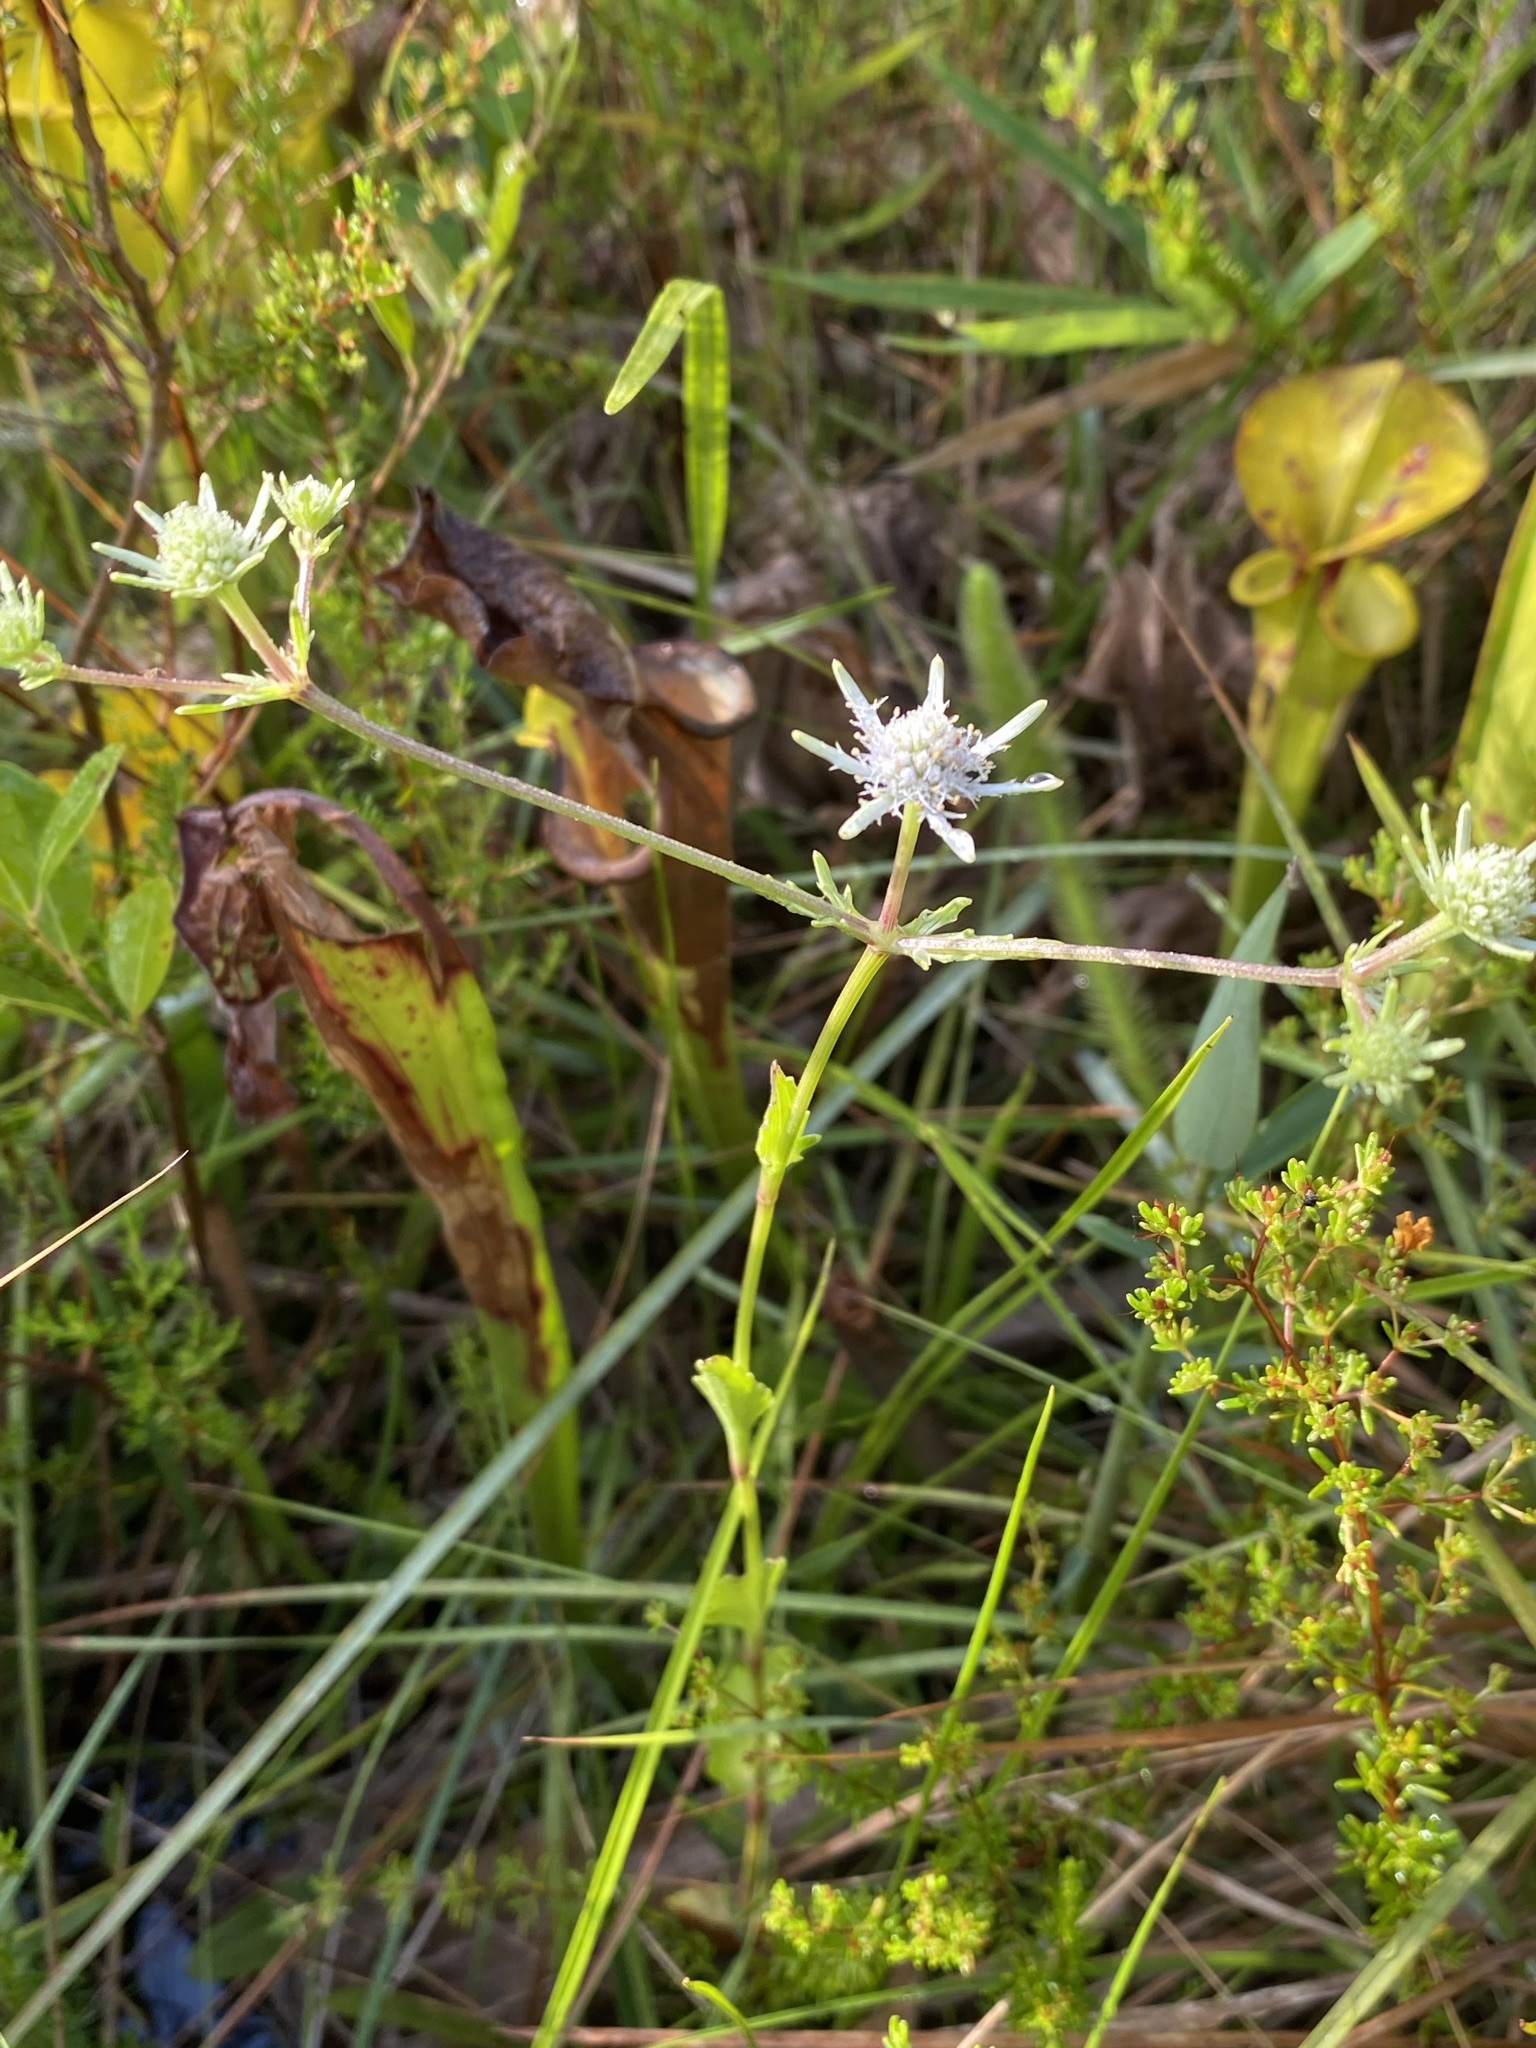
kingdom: Plantae
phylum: Tracheophyta
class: Magnoliopsida
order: Apiales
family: Apiaceae
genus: Eryngium
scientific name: Eryngium integrifolium
